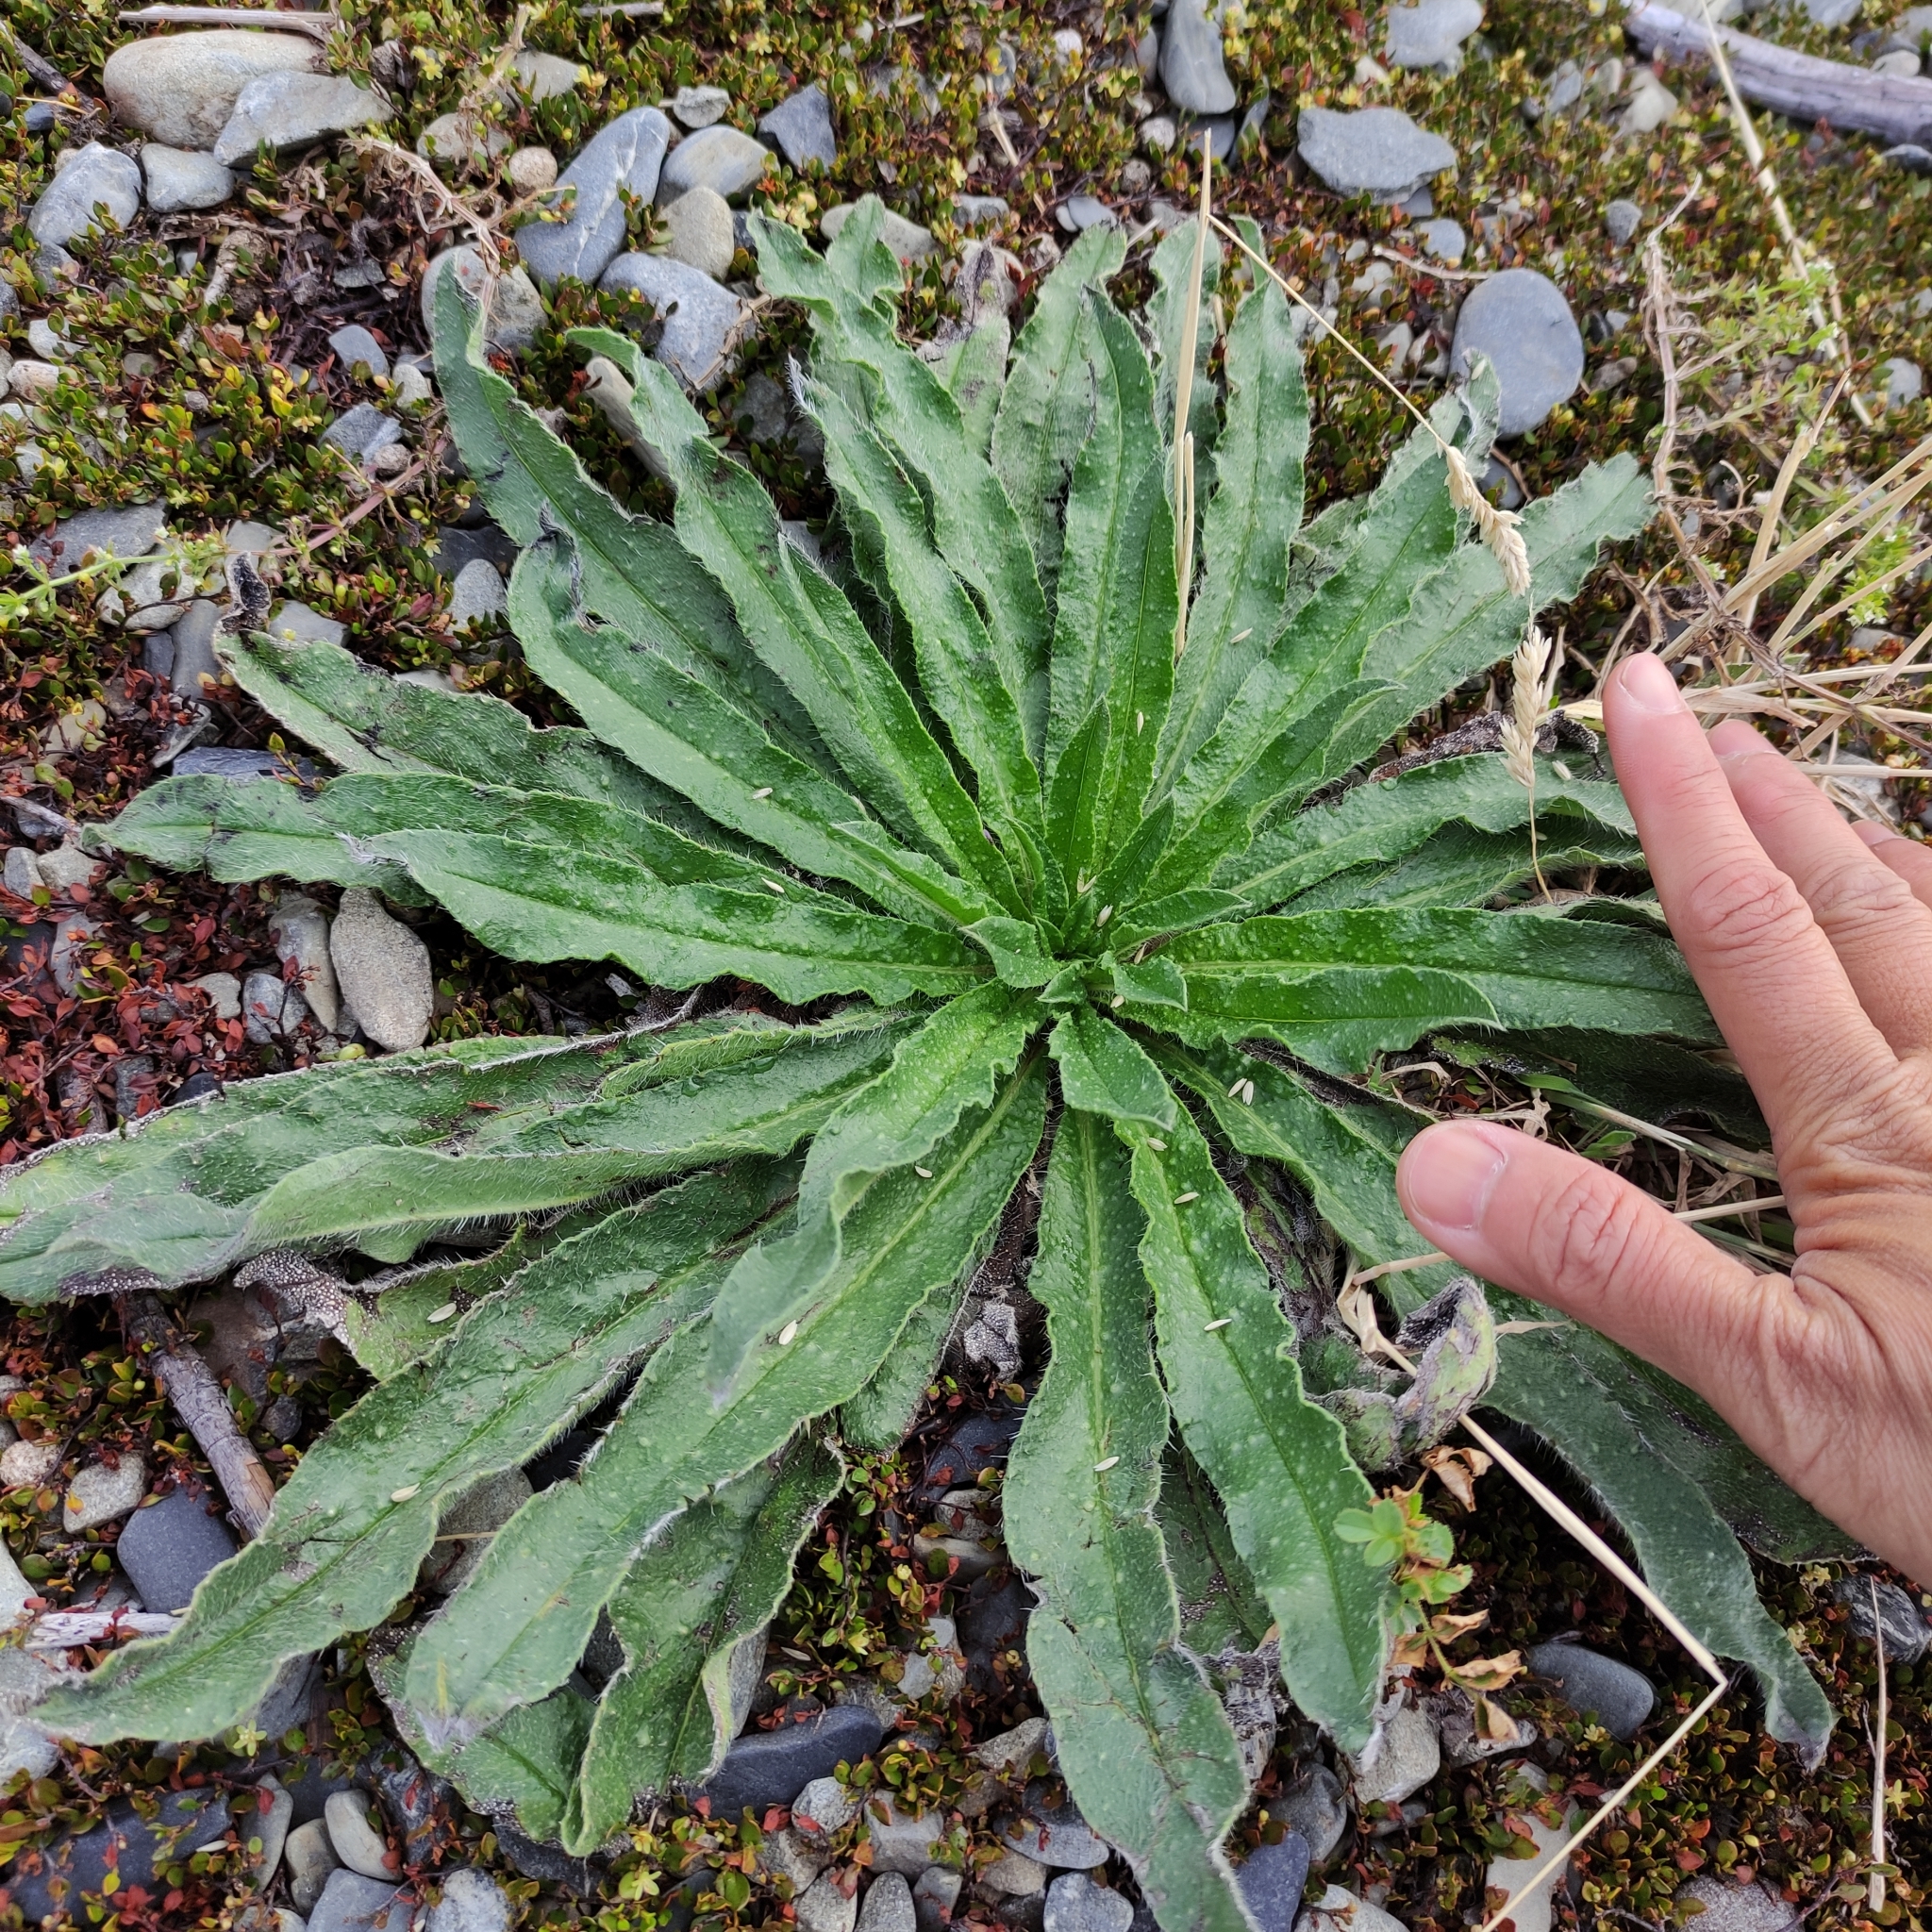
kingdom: Plantae
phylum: Tracheophyta
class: Magnoliopsida
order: Asterales
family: Asteraceae
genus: Helminthotheca
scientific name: Helminthotheca echioides
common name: Ox-tongue
